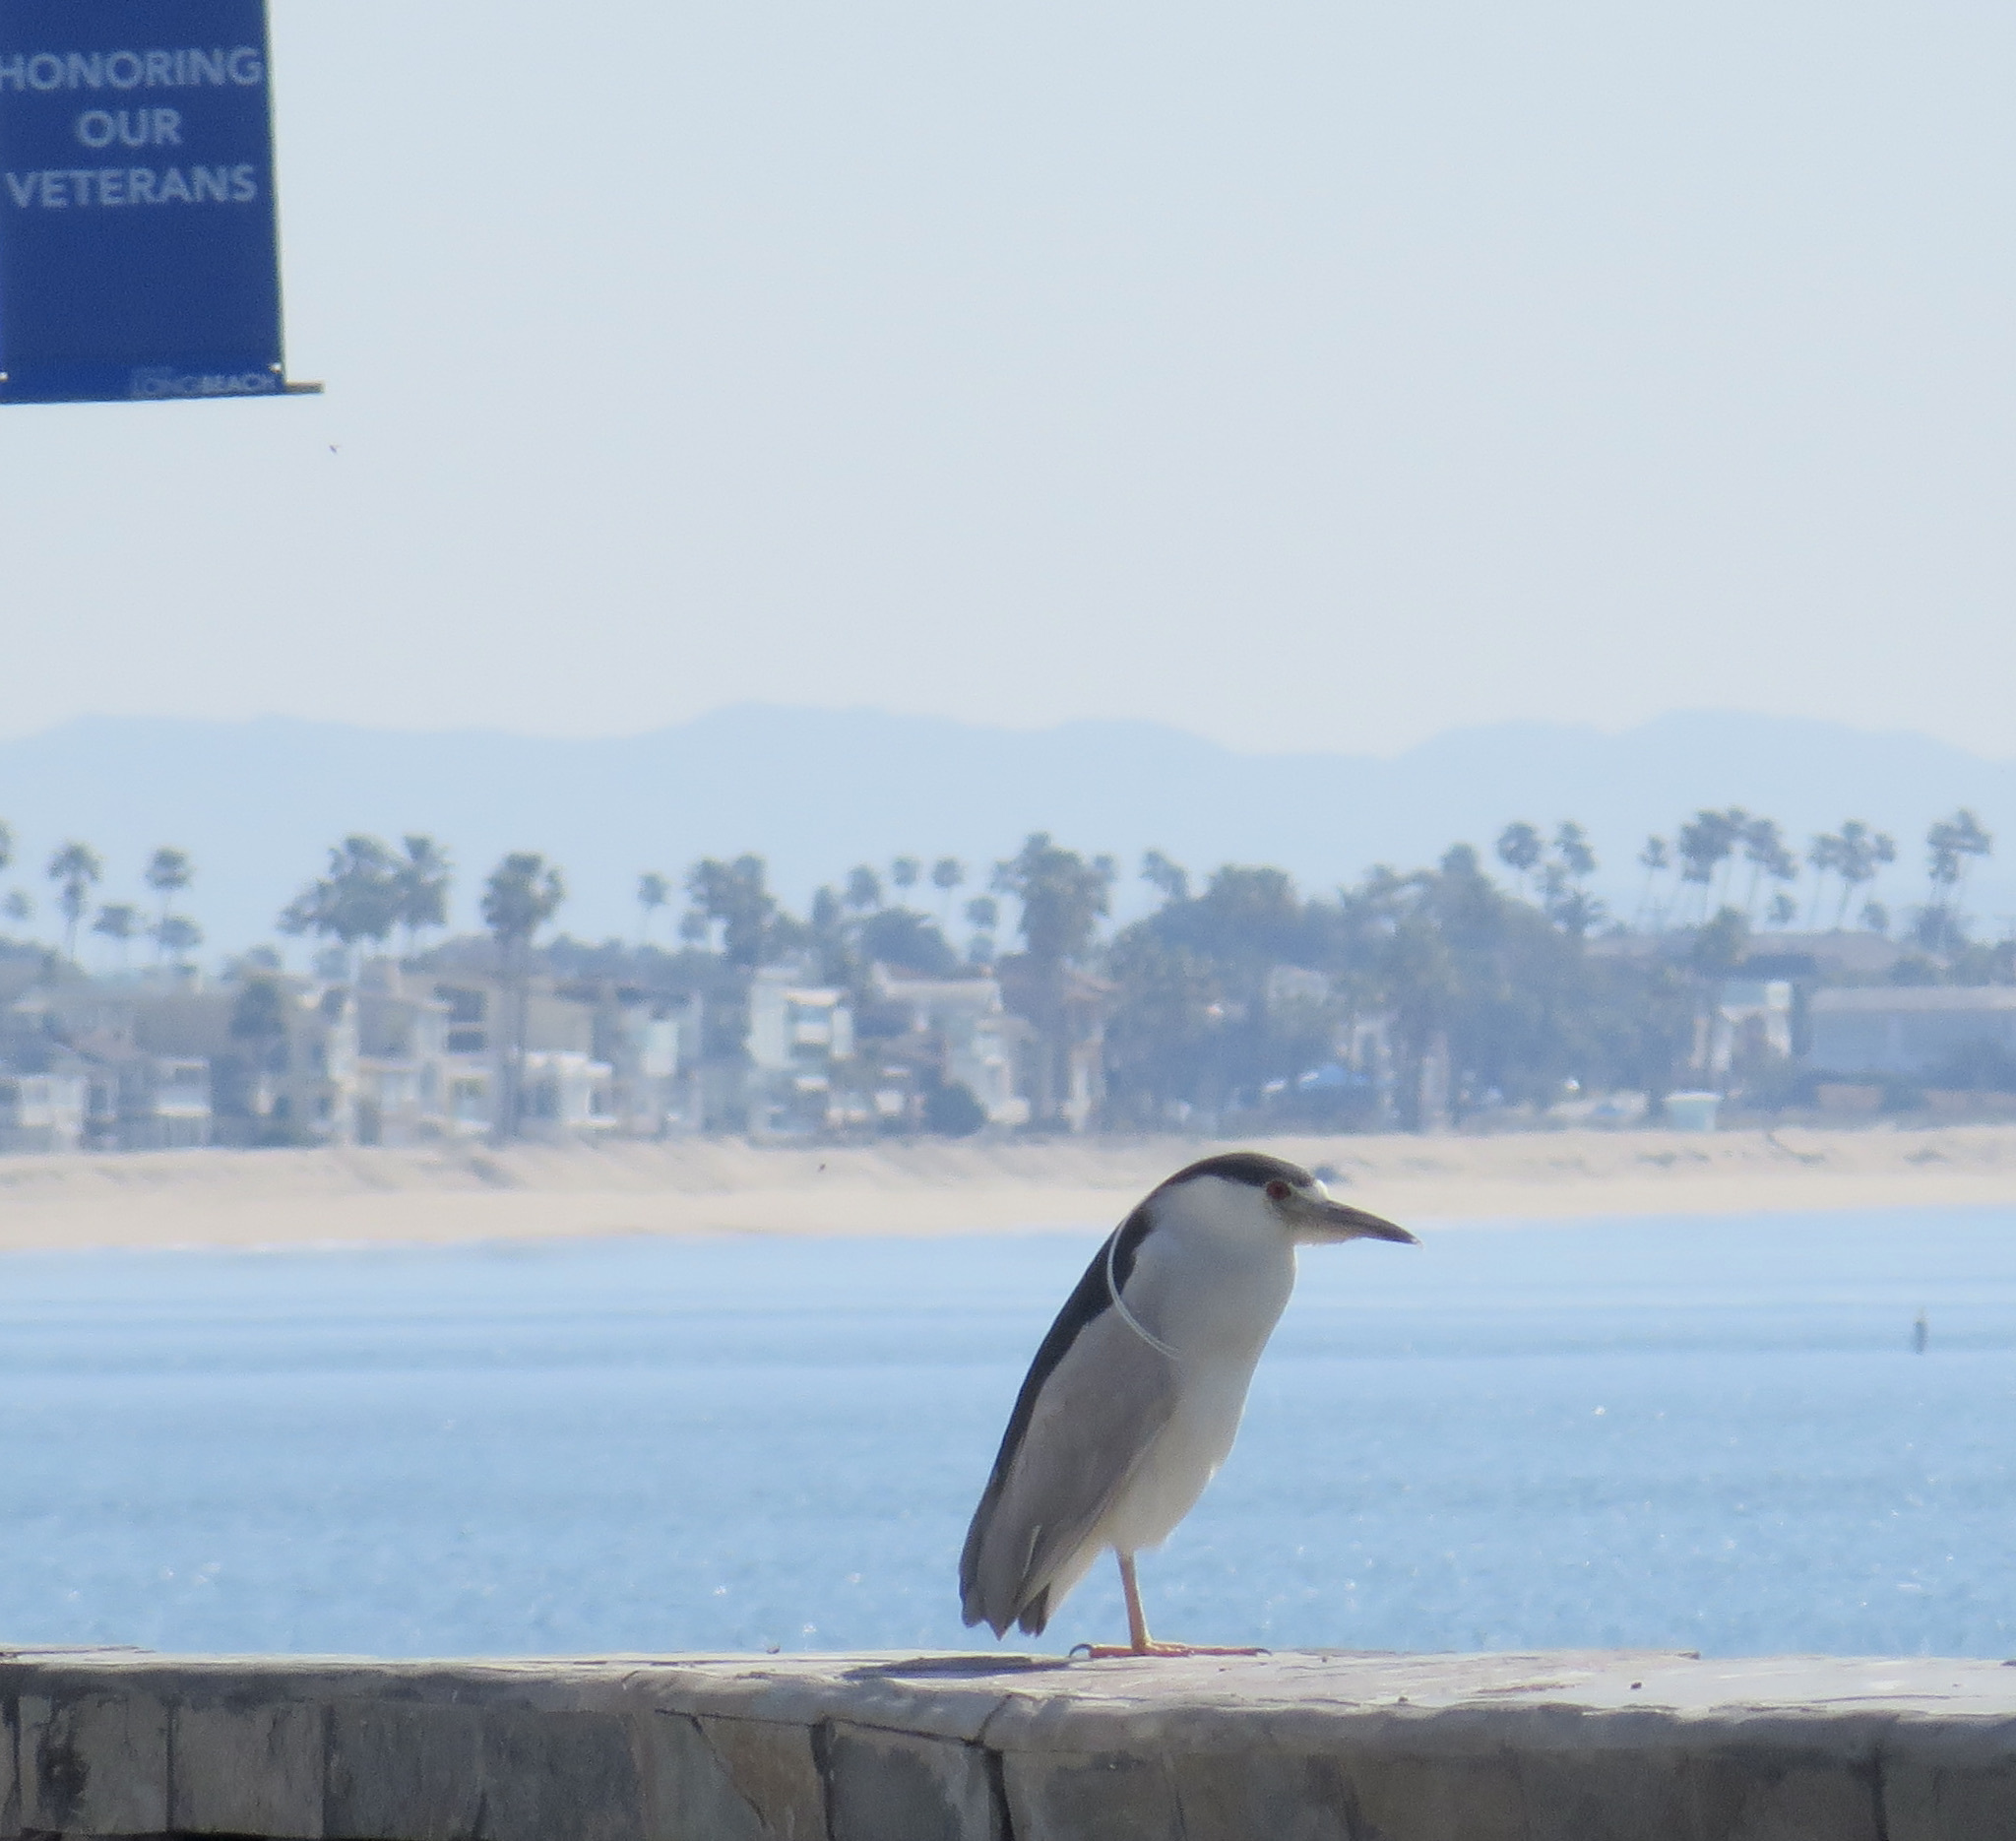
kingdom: Animalia
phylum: Chordata
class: Aves
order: Pelecaniformes
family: Ardeidae
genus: Nycticorax
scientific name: Nycticorax nycticorax
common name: Black-crowned night heron
